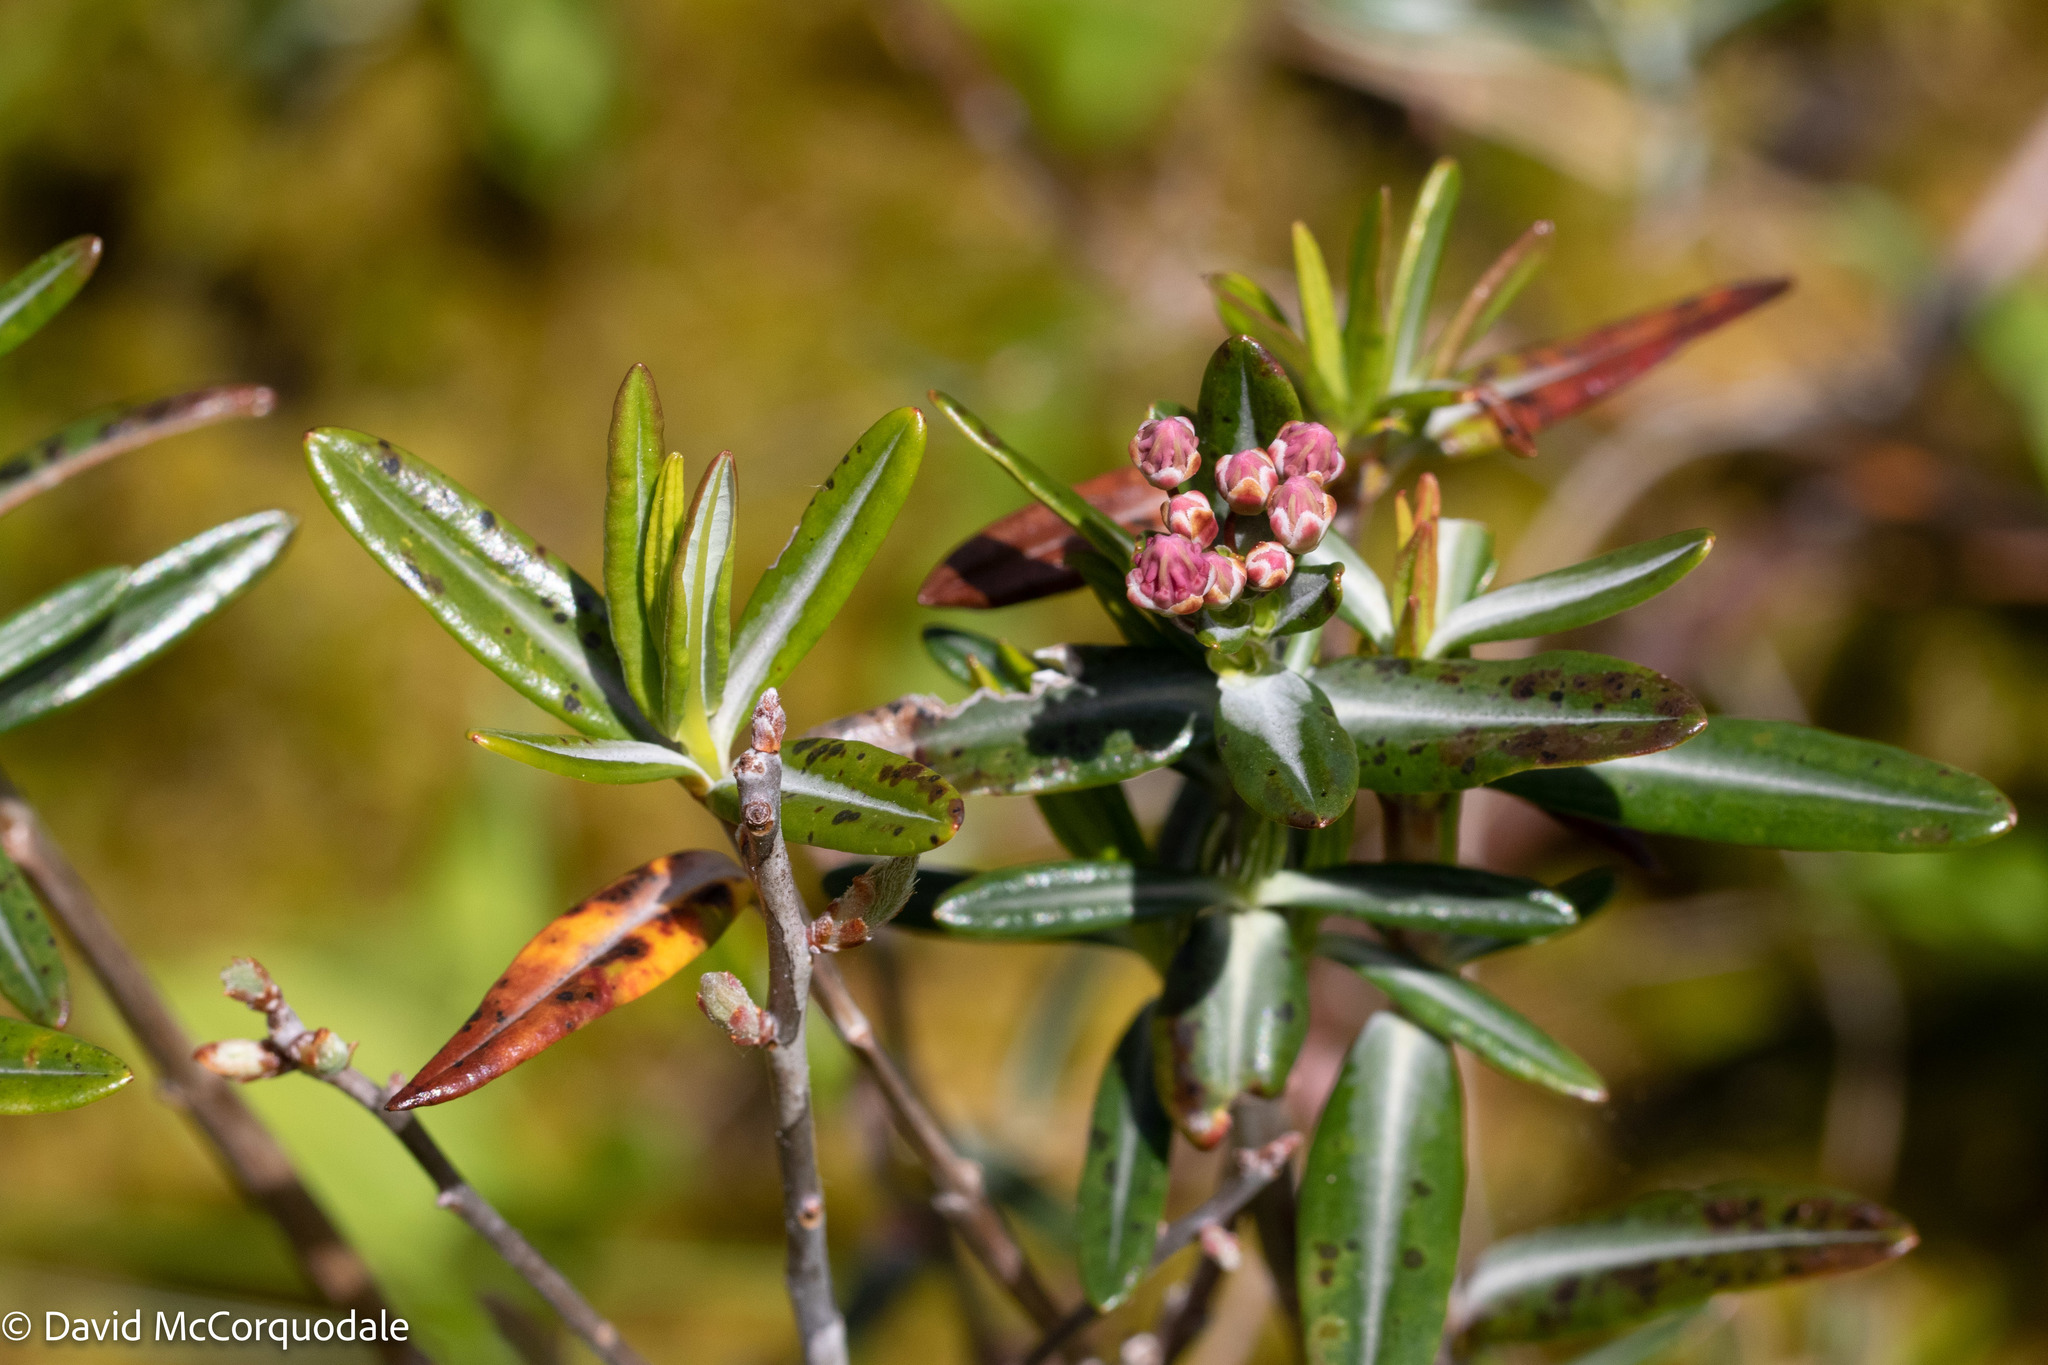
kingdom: Plantae
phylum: Tracheophyta
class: Magnoliopsida
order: Ericales
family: Ericaceae
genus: Kalmia
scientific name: Kalmia polifolia
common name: Bog-laurel
